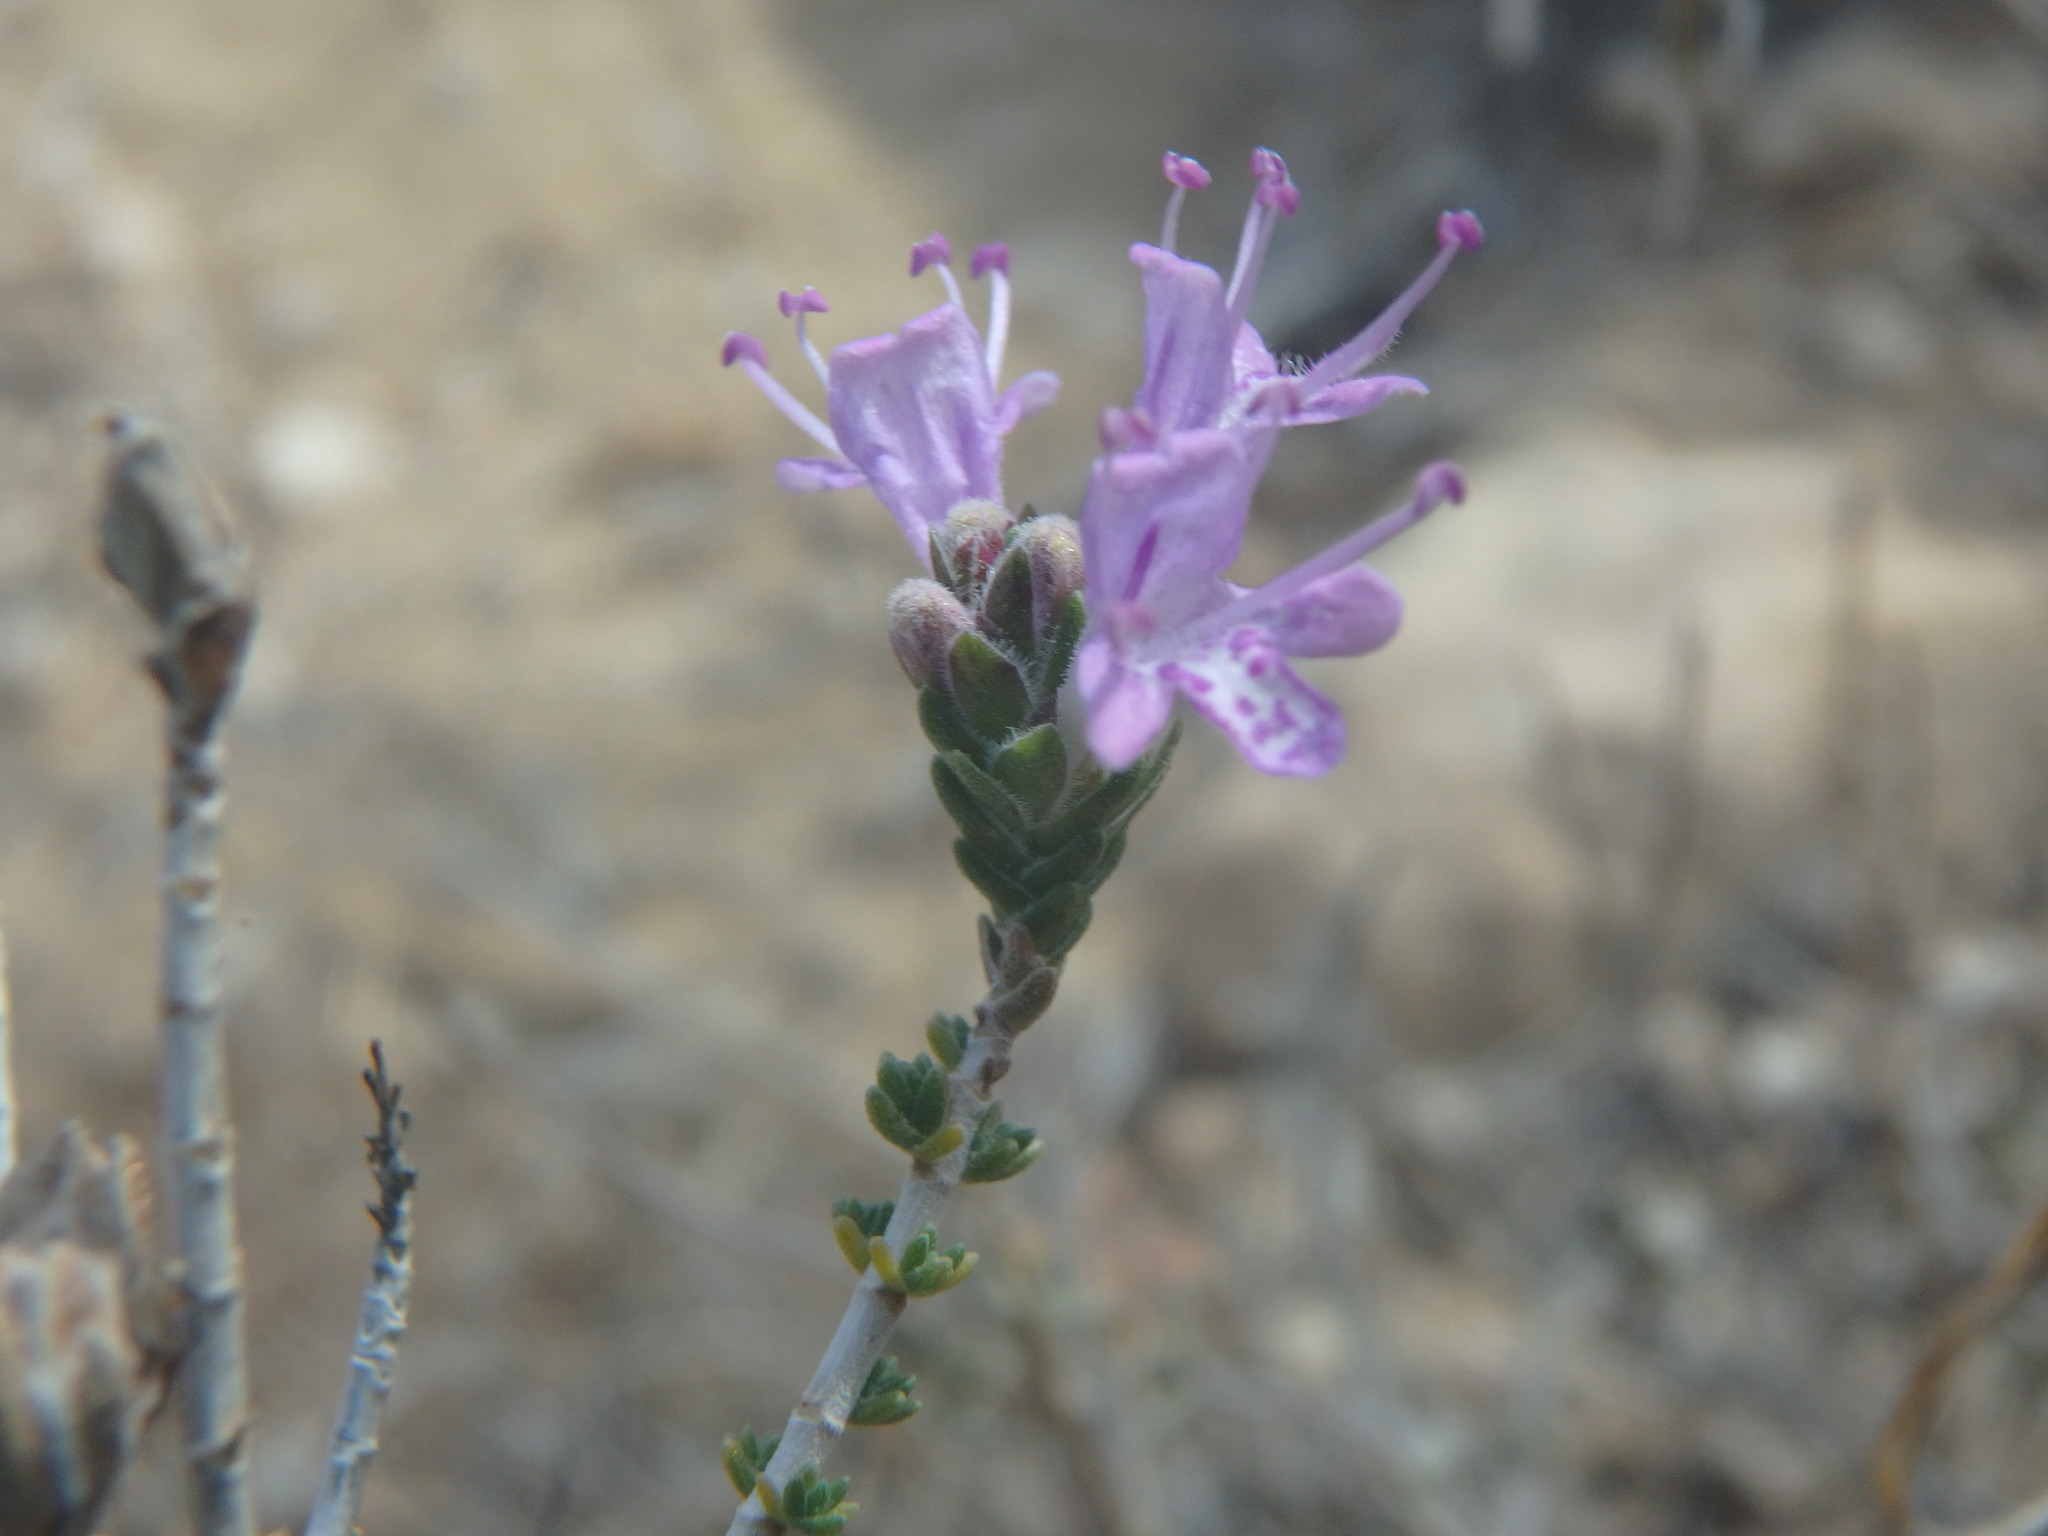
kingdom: Plantae
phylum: Tracheophyta
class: Magnoliopsida
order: Lamiales
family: Lamiaceae
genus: Thymbra
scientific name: Thymbra capitata
